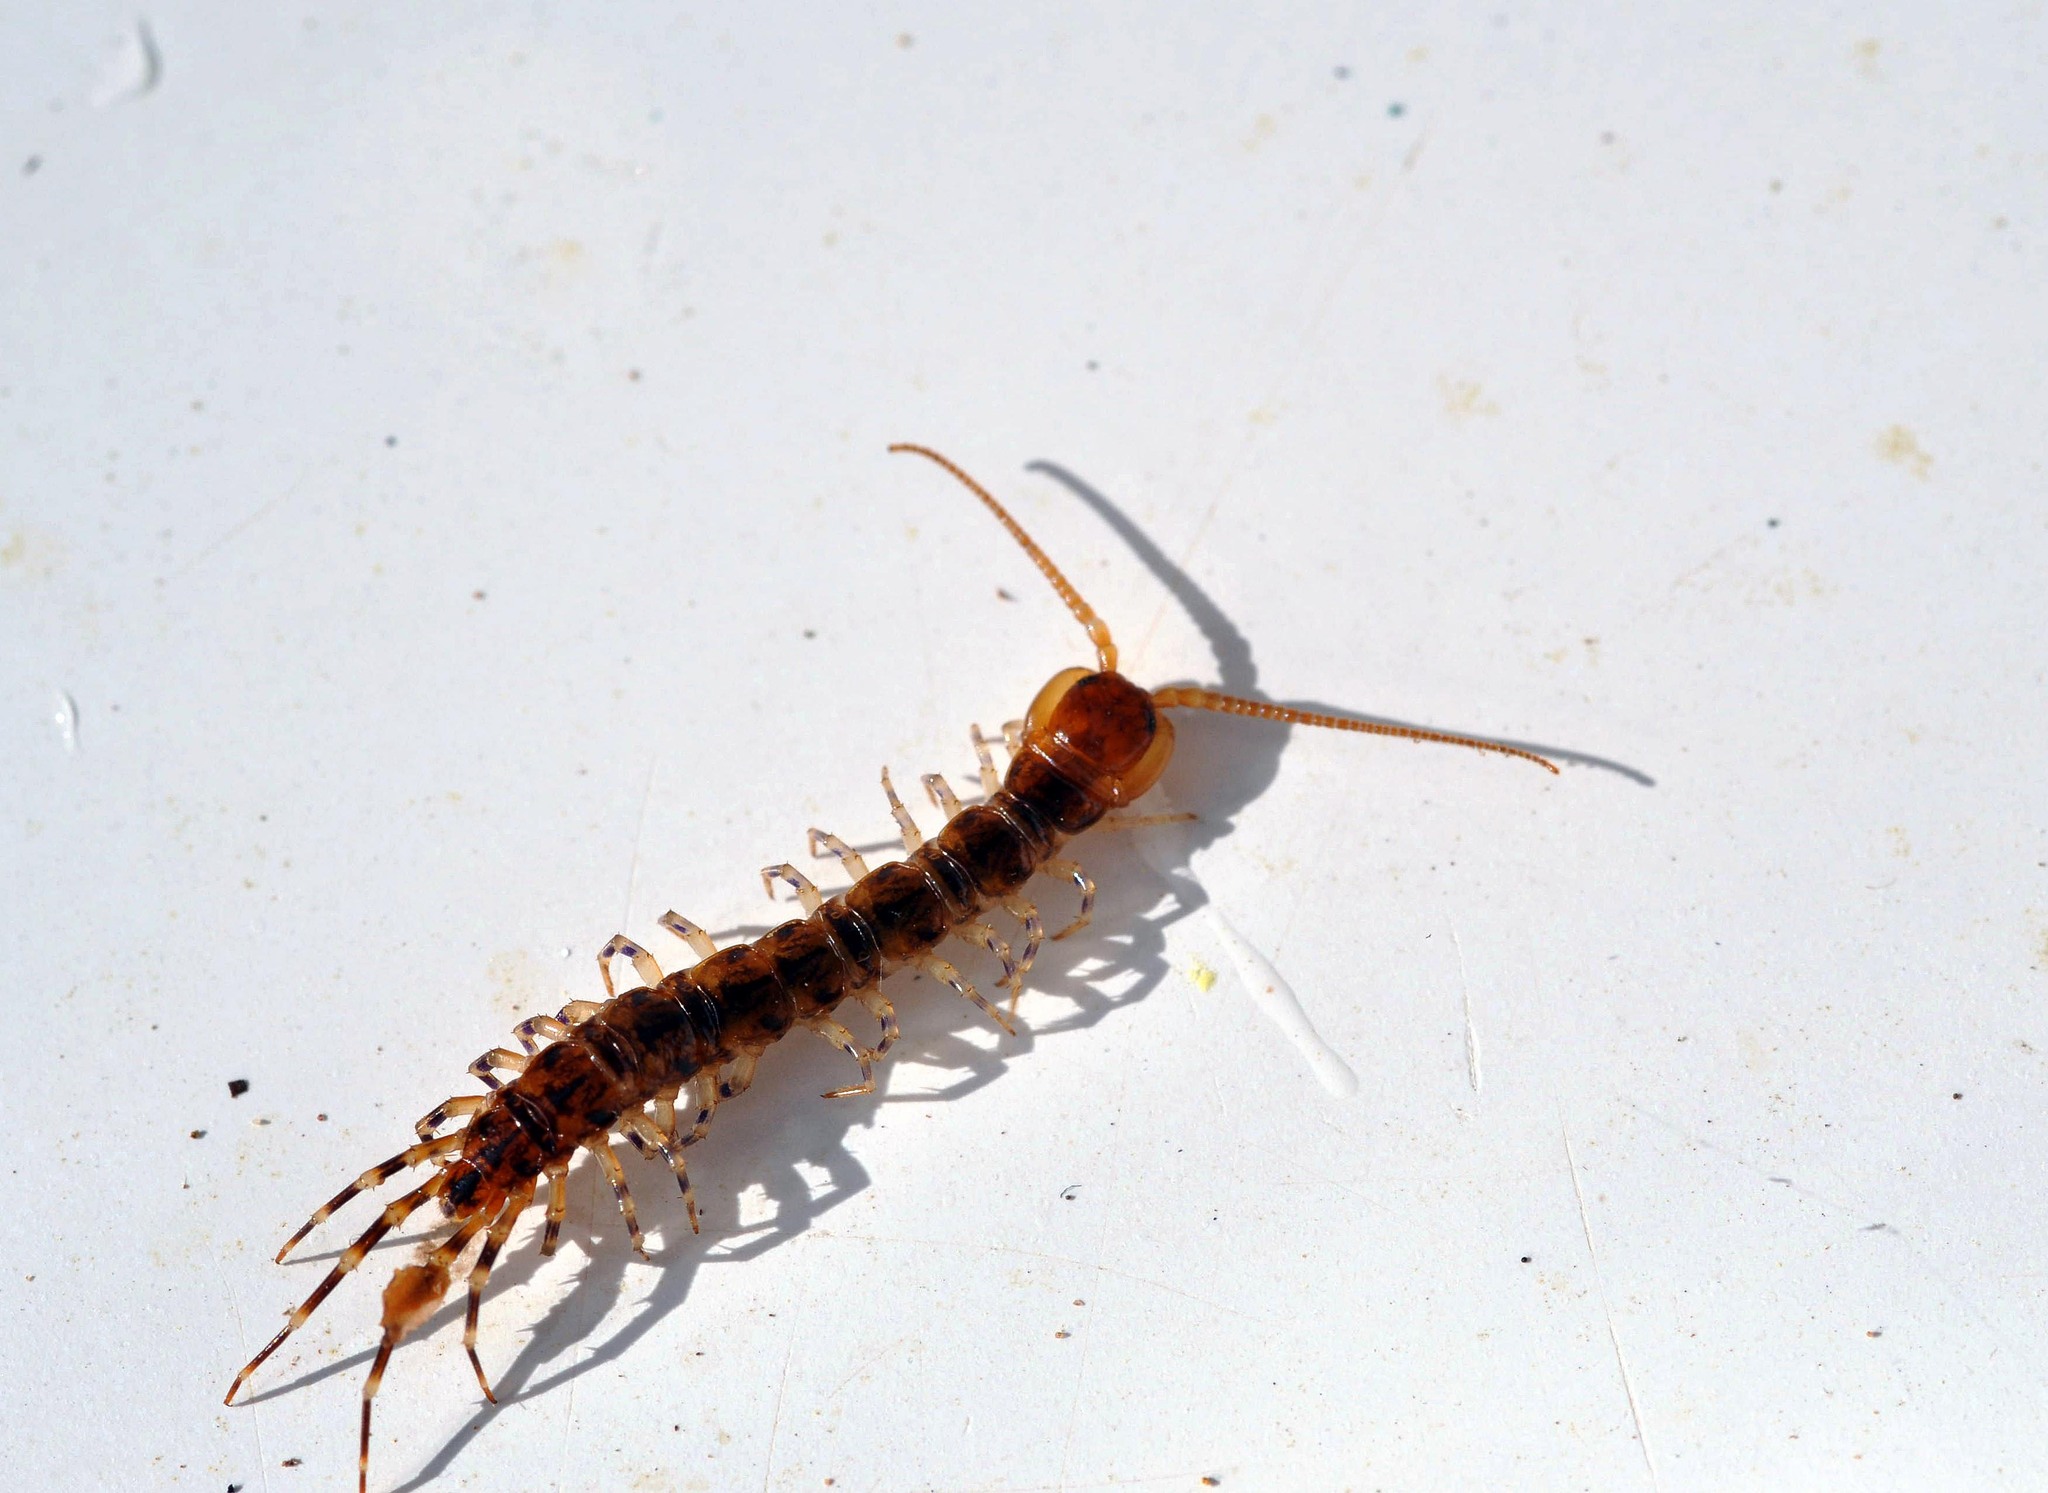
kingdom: Animalia
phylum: Arthropoda
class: Chilopoda
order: Lithobiomorpha
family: Lithobiidae
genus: Lithobius
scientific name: Lithobius variegatus
